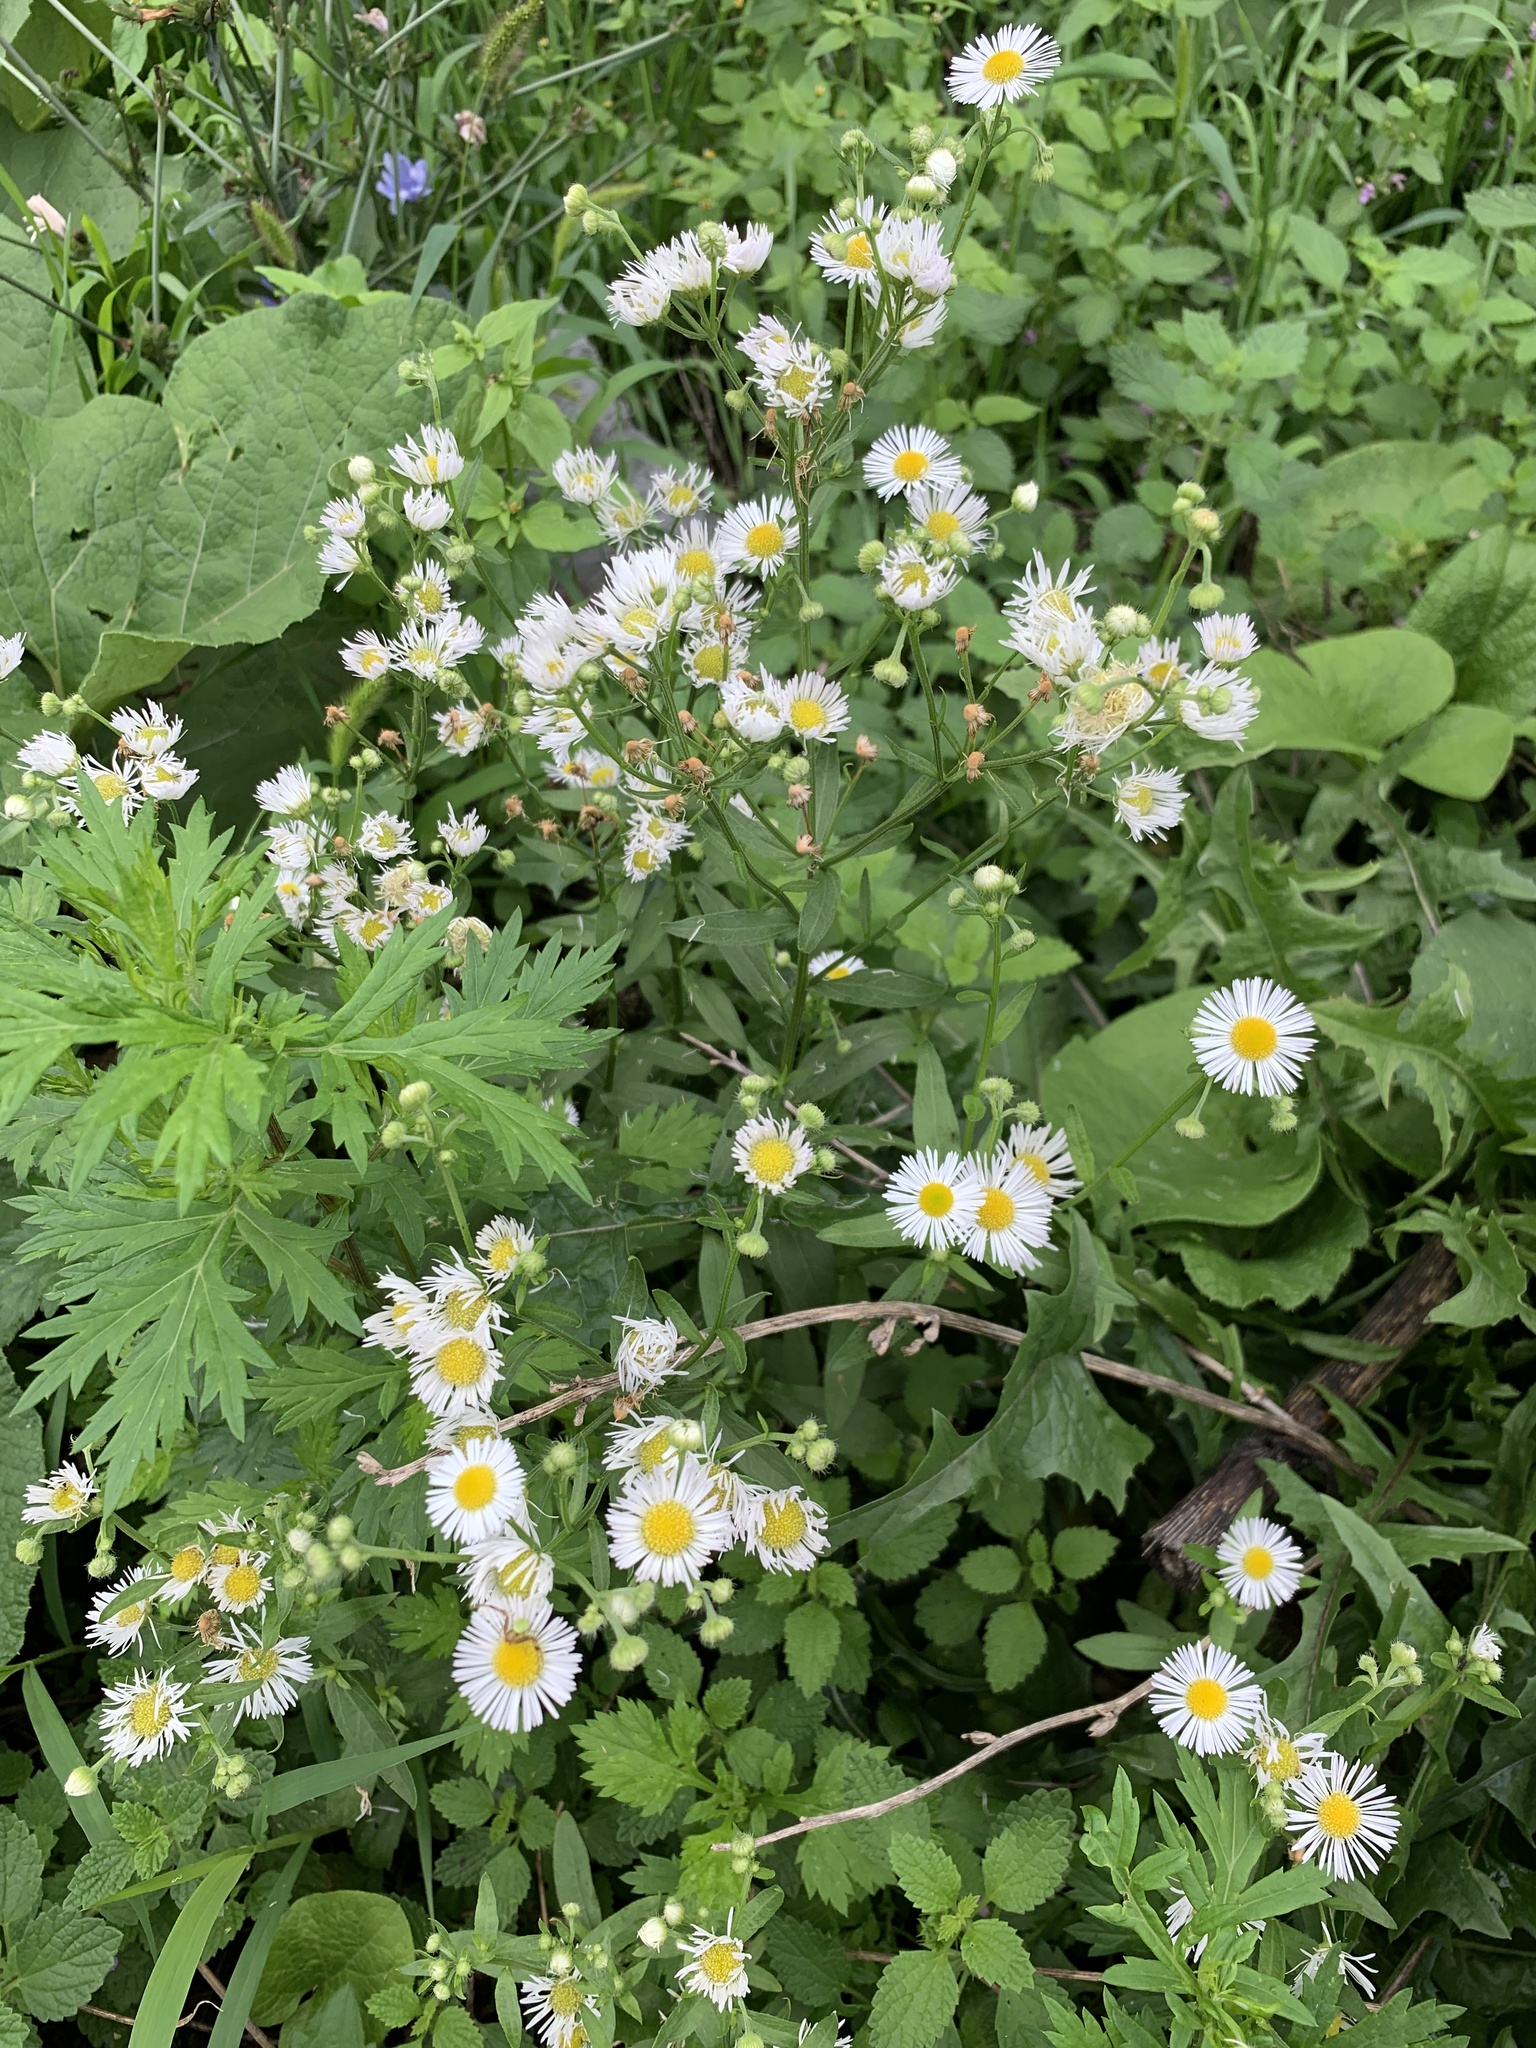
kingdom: Plantae
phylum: Tracheophyta
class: Magnoliopsida
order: Asterales
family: Asteraceae
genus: Erigeron
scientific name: Erigeron annuus
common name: Tall fleabane
